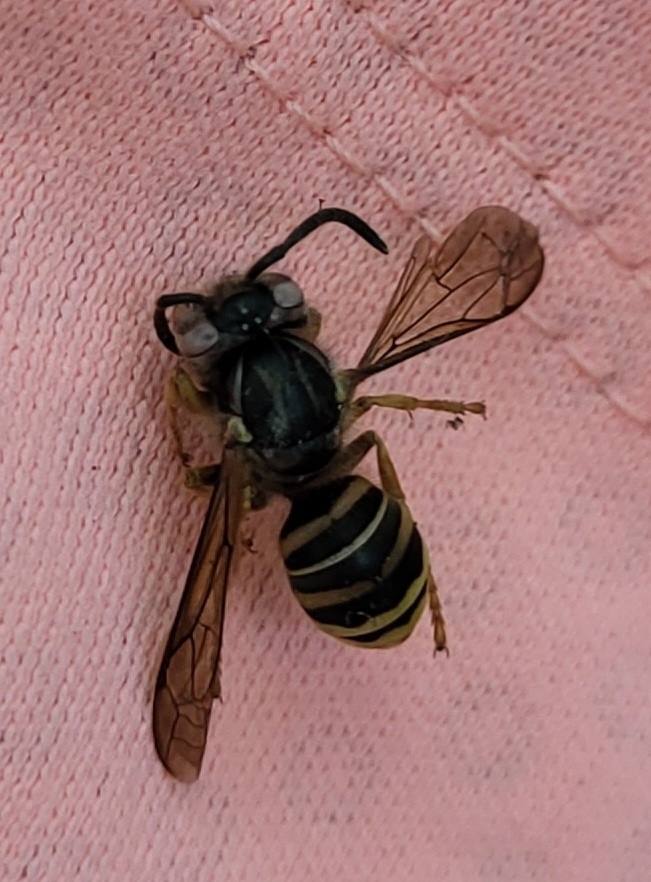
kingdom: Animalia
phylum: Arthropoda
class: Insecta
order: Hymenoptera
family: Vespidae
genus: Vespula
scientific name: Vespula squamosa
